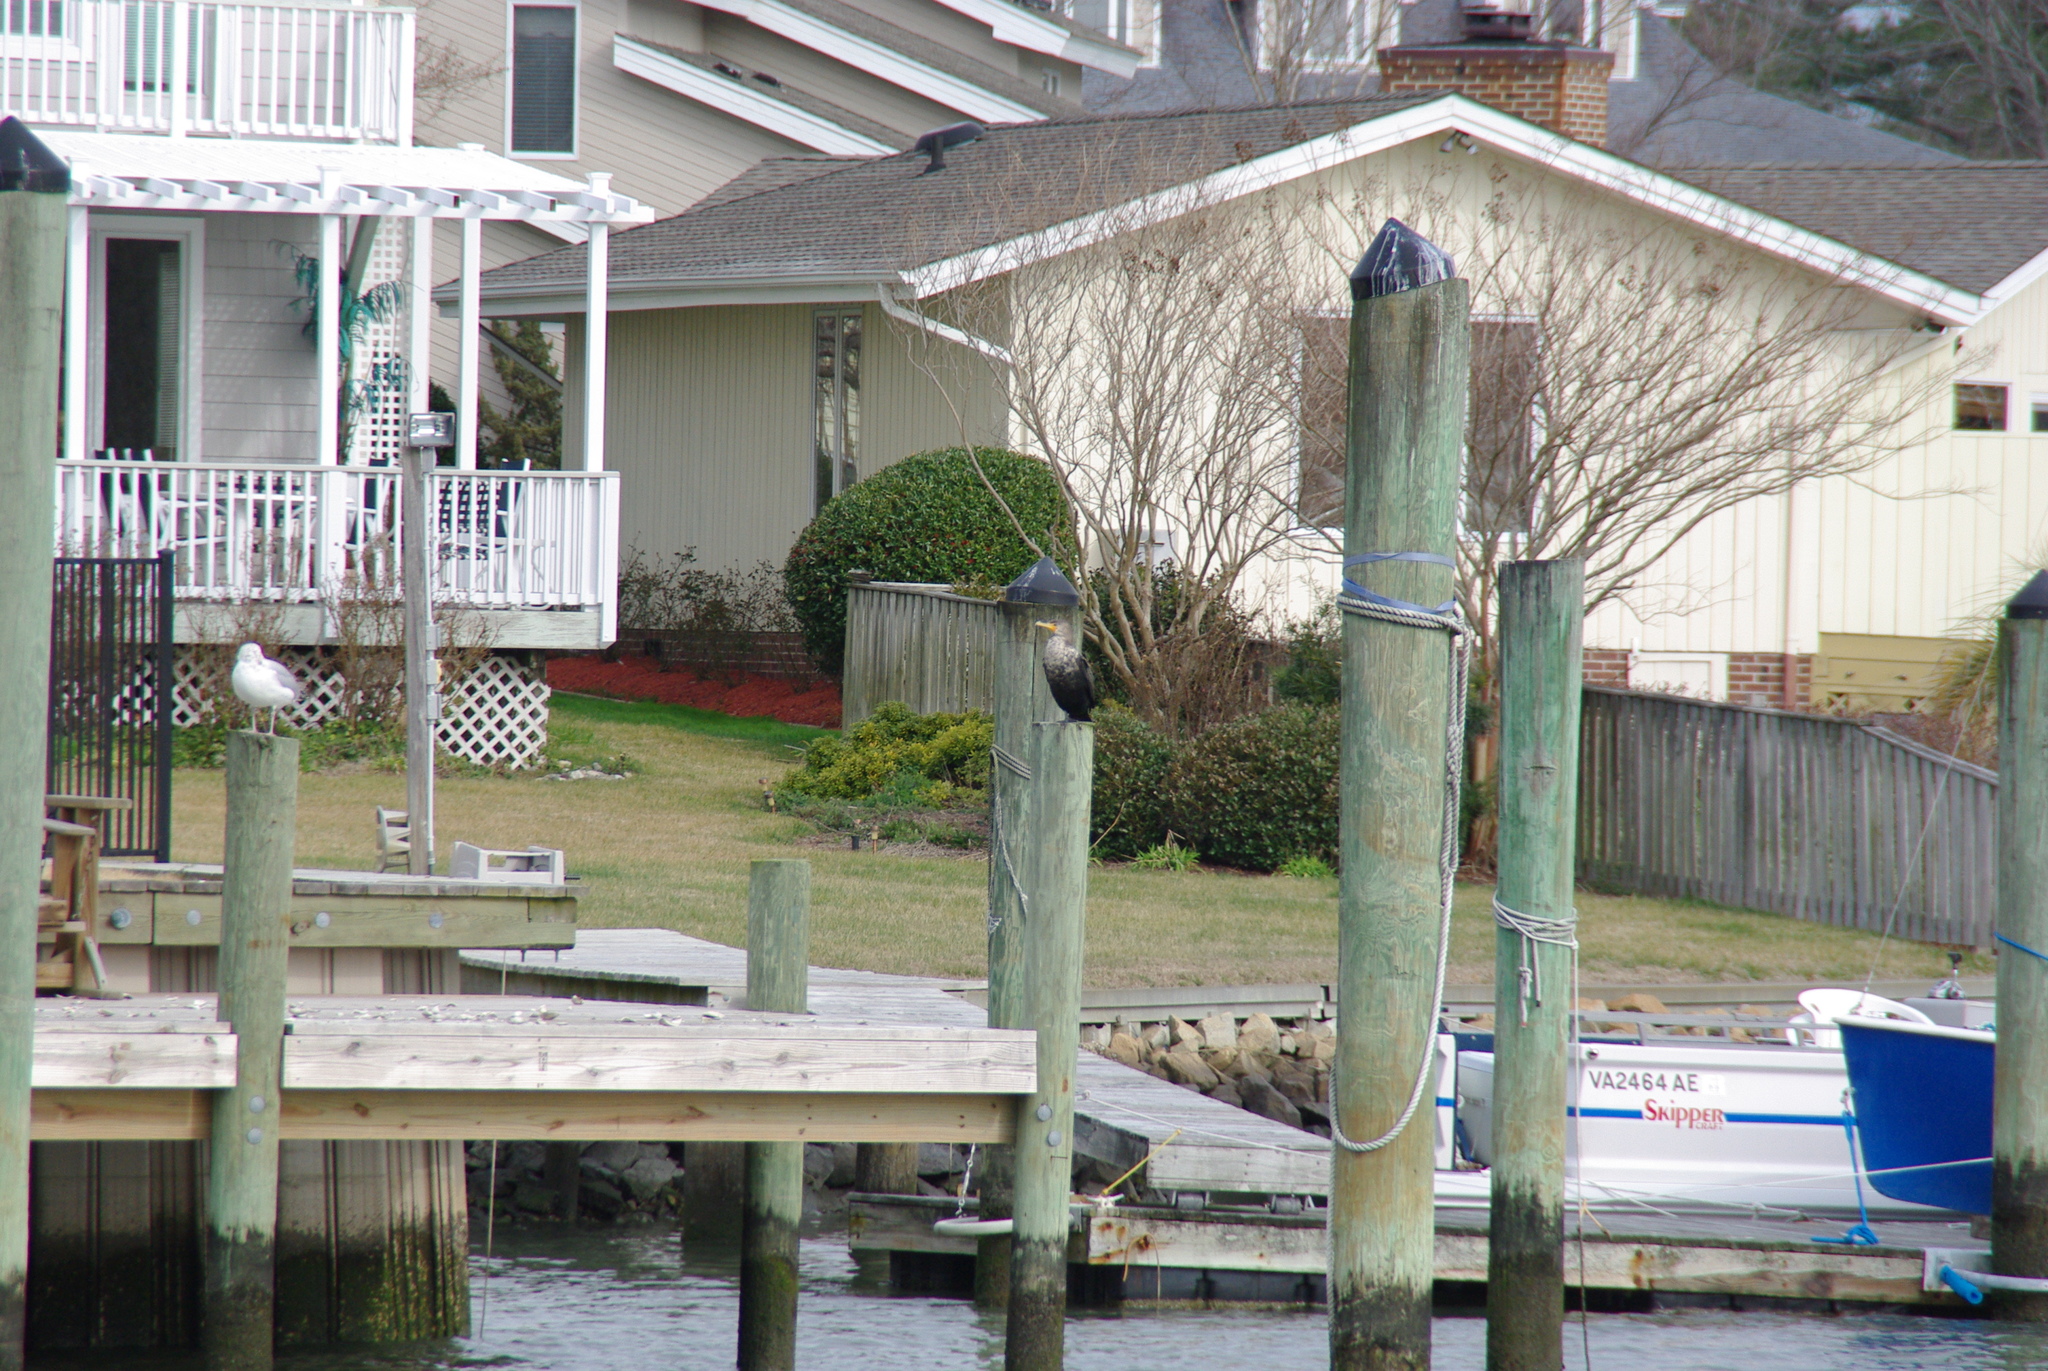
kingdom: Animalia
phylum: Chordata
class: Aves
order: Suliformes
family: Phalacrocoracidae
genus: Phalacrocorax
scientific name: Phalacrocorax auritus
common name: Double-crested cormorant
